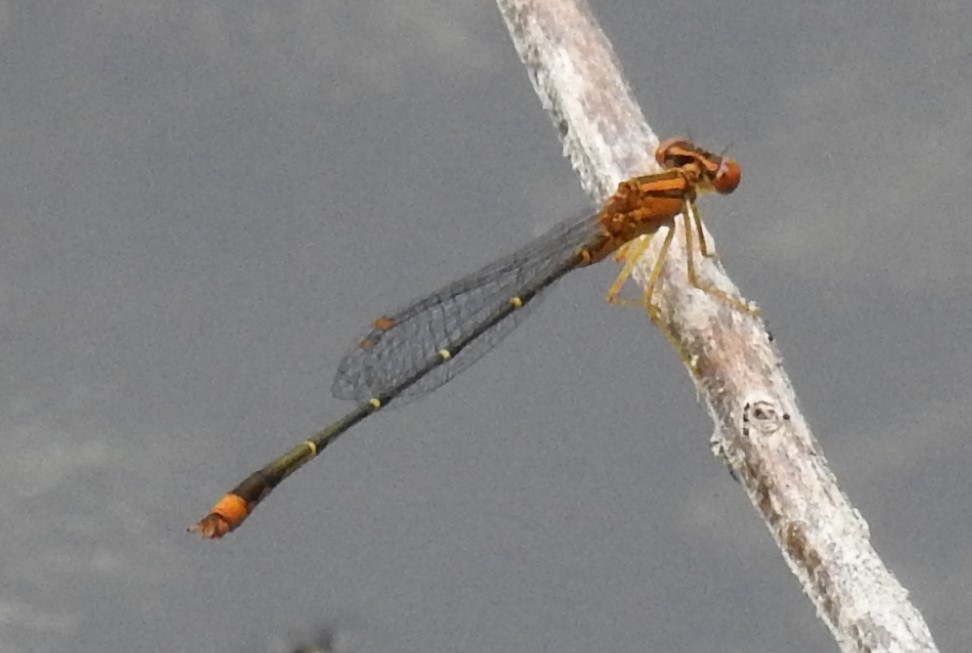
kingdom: Animalia
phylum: Arthropoda
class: Insecta
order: Odonata
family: Coenagrionidae
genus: Enallagma
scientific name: Enallagma signatum
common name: Orange bluet
